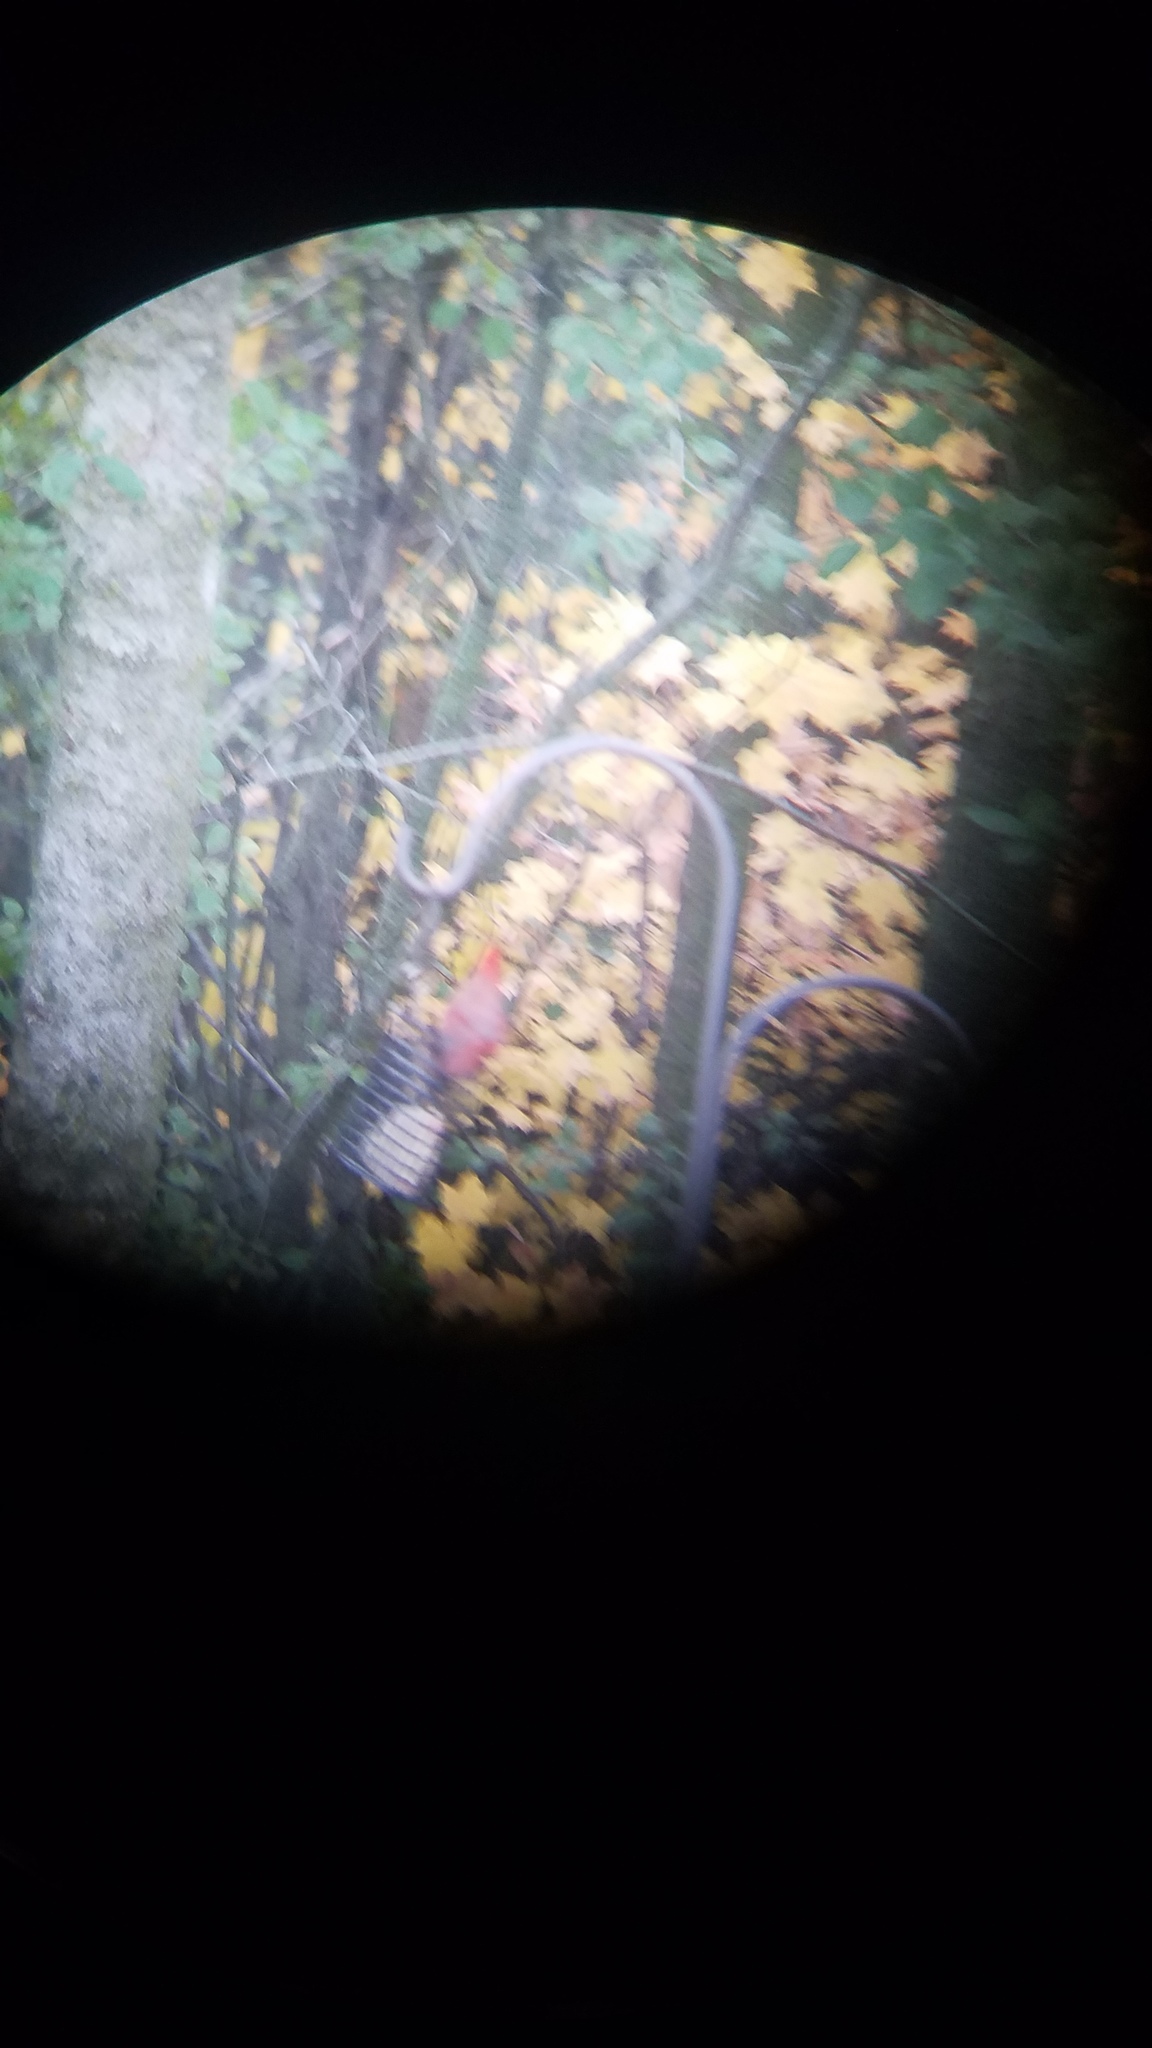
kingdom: Animalia
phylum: Chordata
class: Aves
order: Passeriformes
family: Cardinalidae
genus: Cardinalis
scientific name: Cardinalis cardinalis
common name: Northern cardinal
